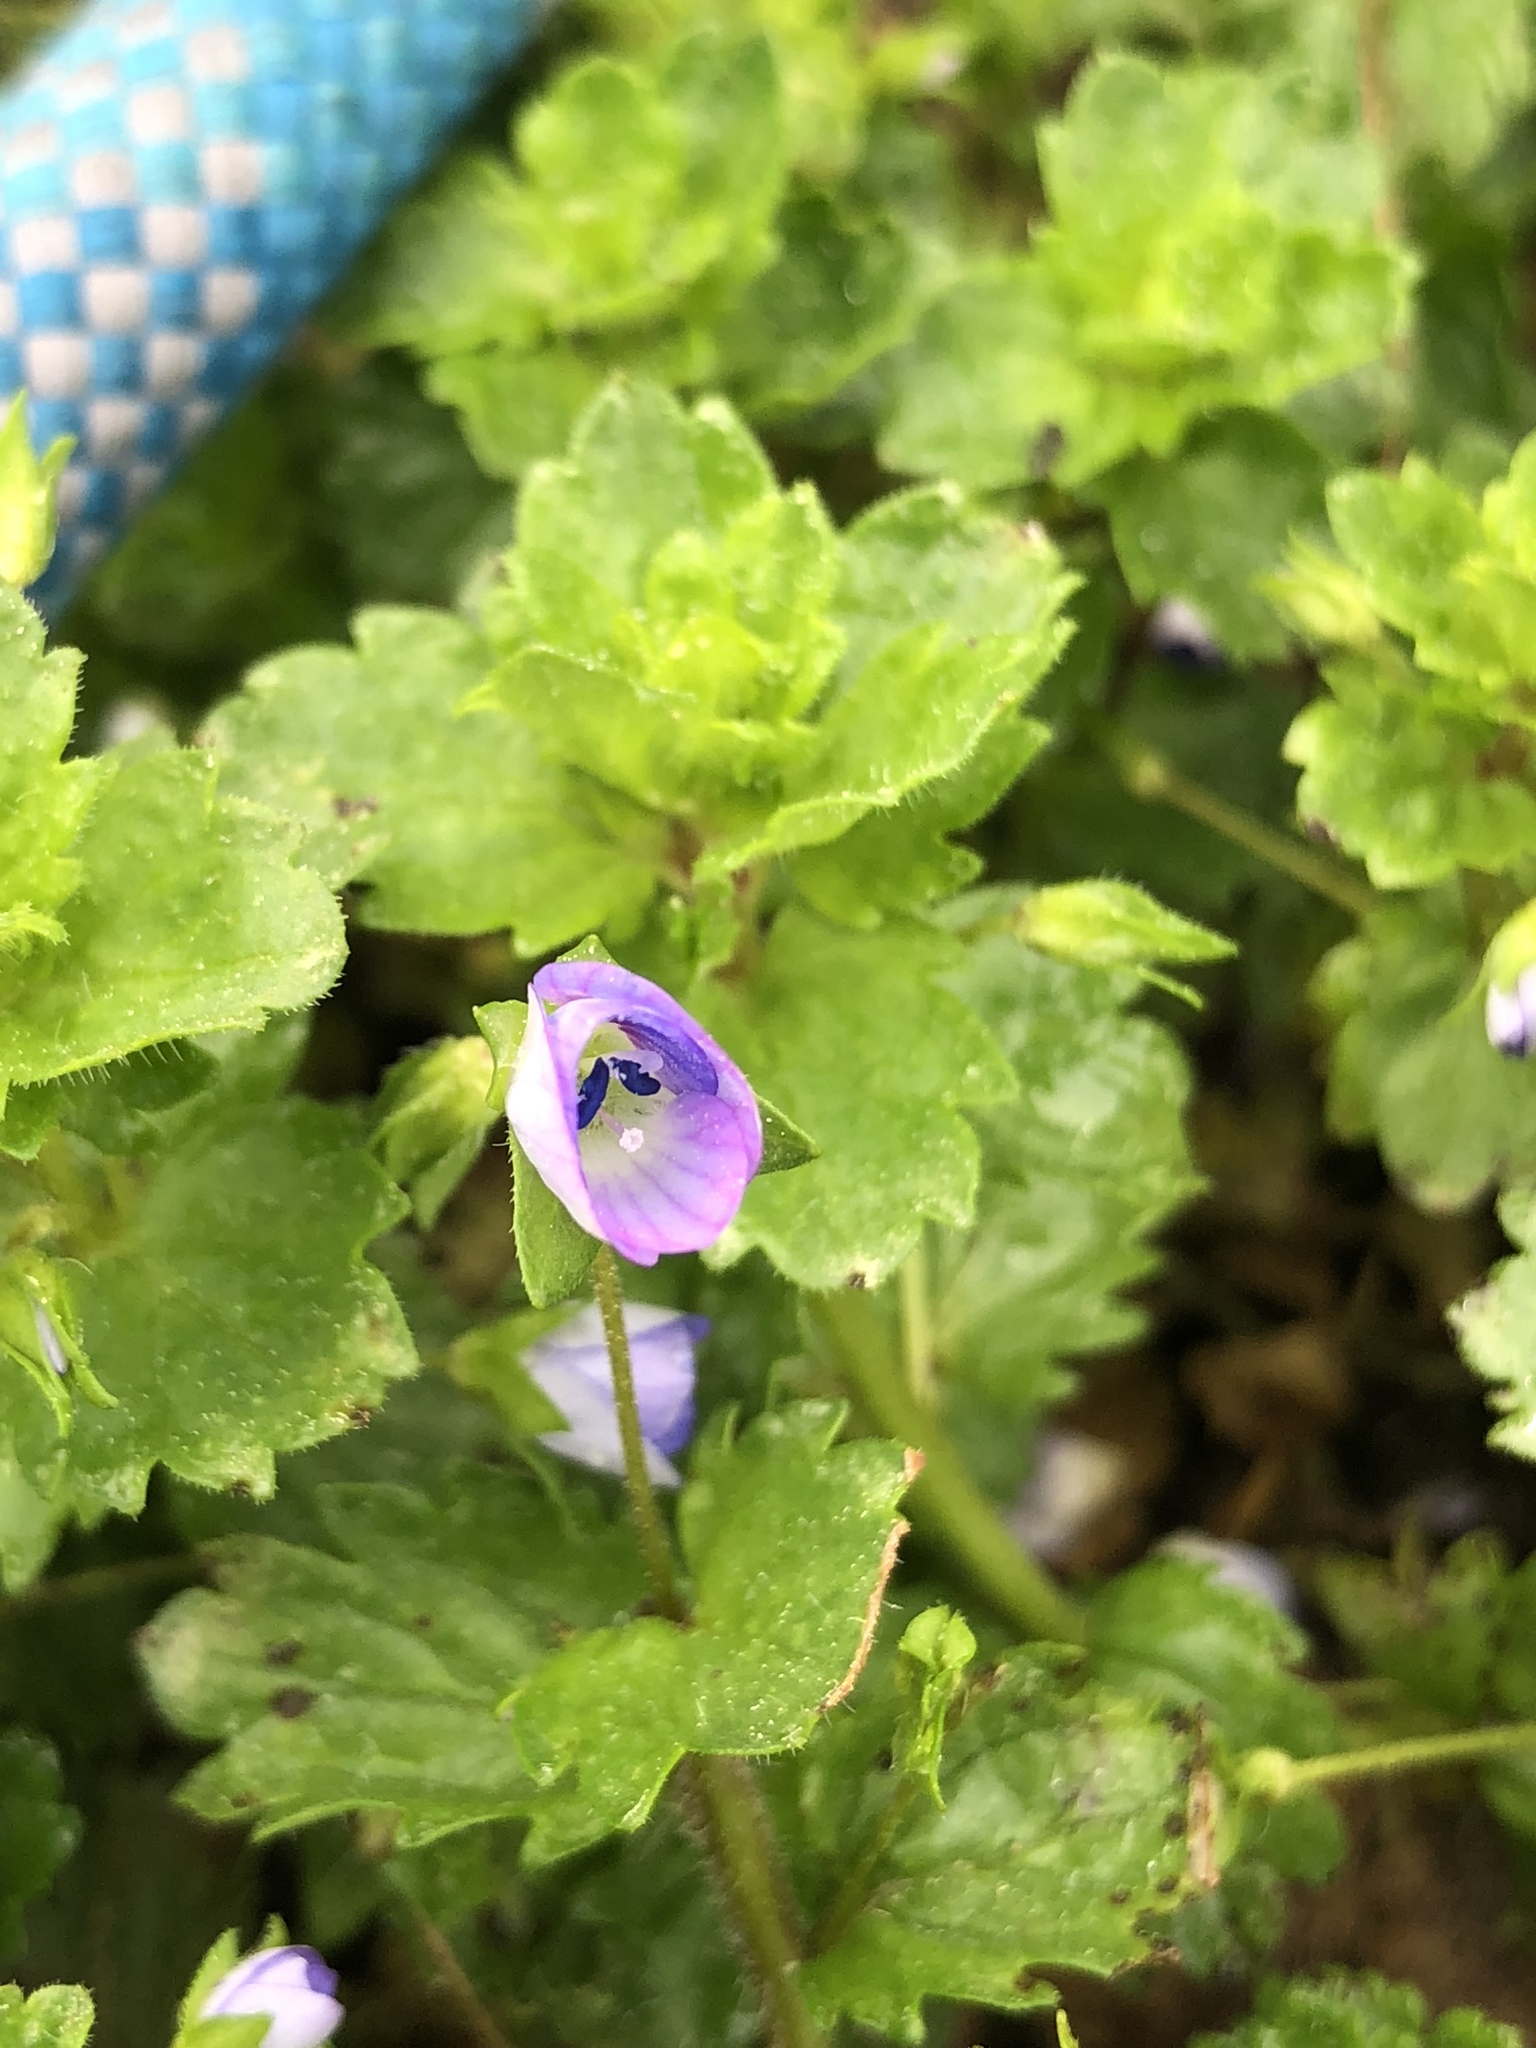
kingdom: Plantae
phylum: Tracheophyta
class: Magnoliopsida
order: Lamiales
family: Plantaginaceae
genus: Veronica
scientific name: Veronica persica
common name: Common field-speedwell
